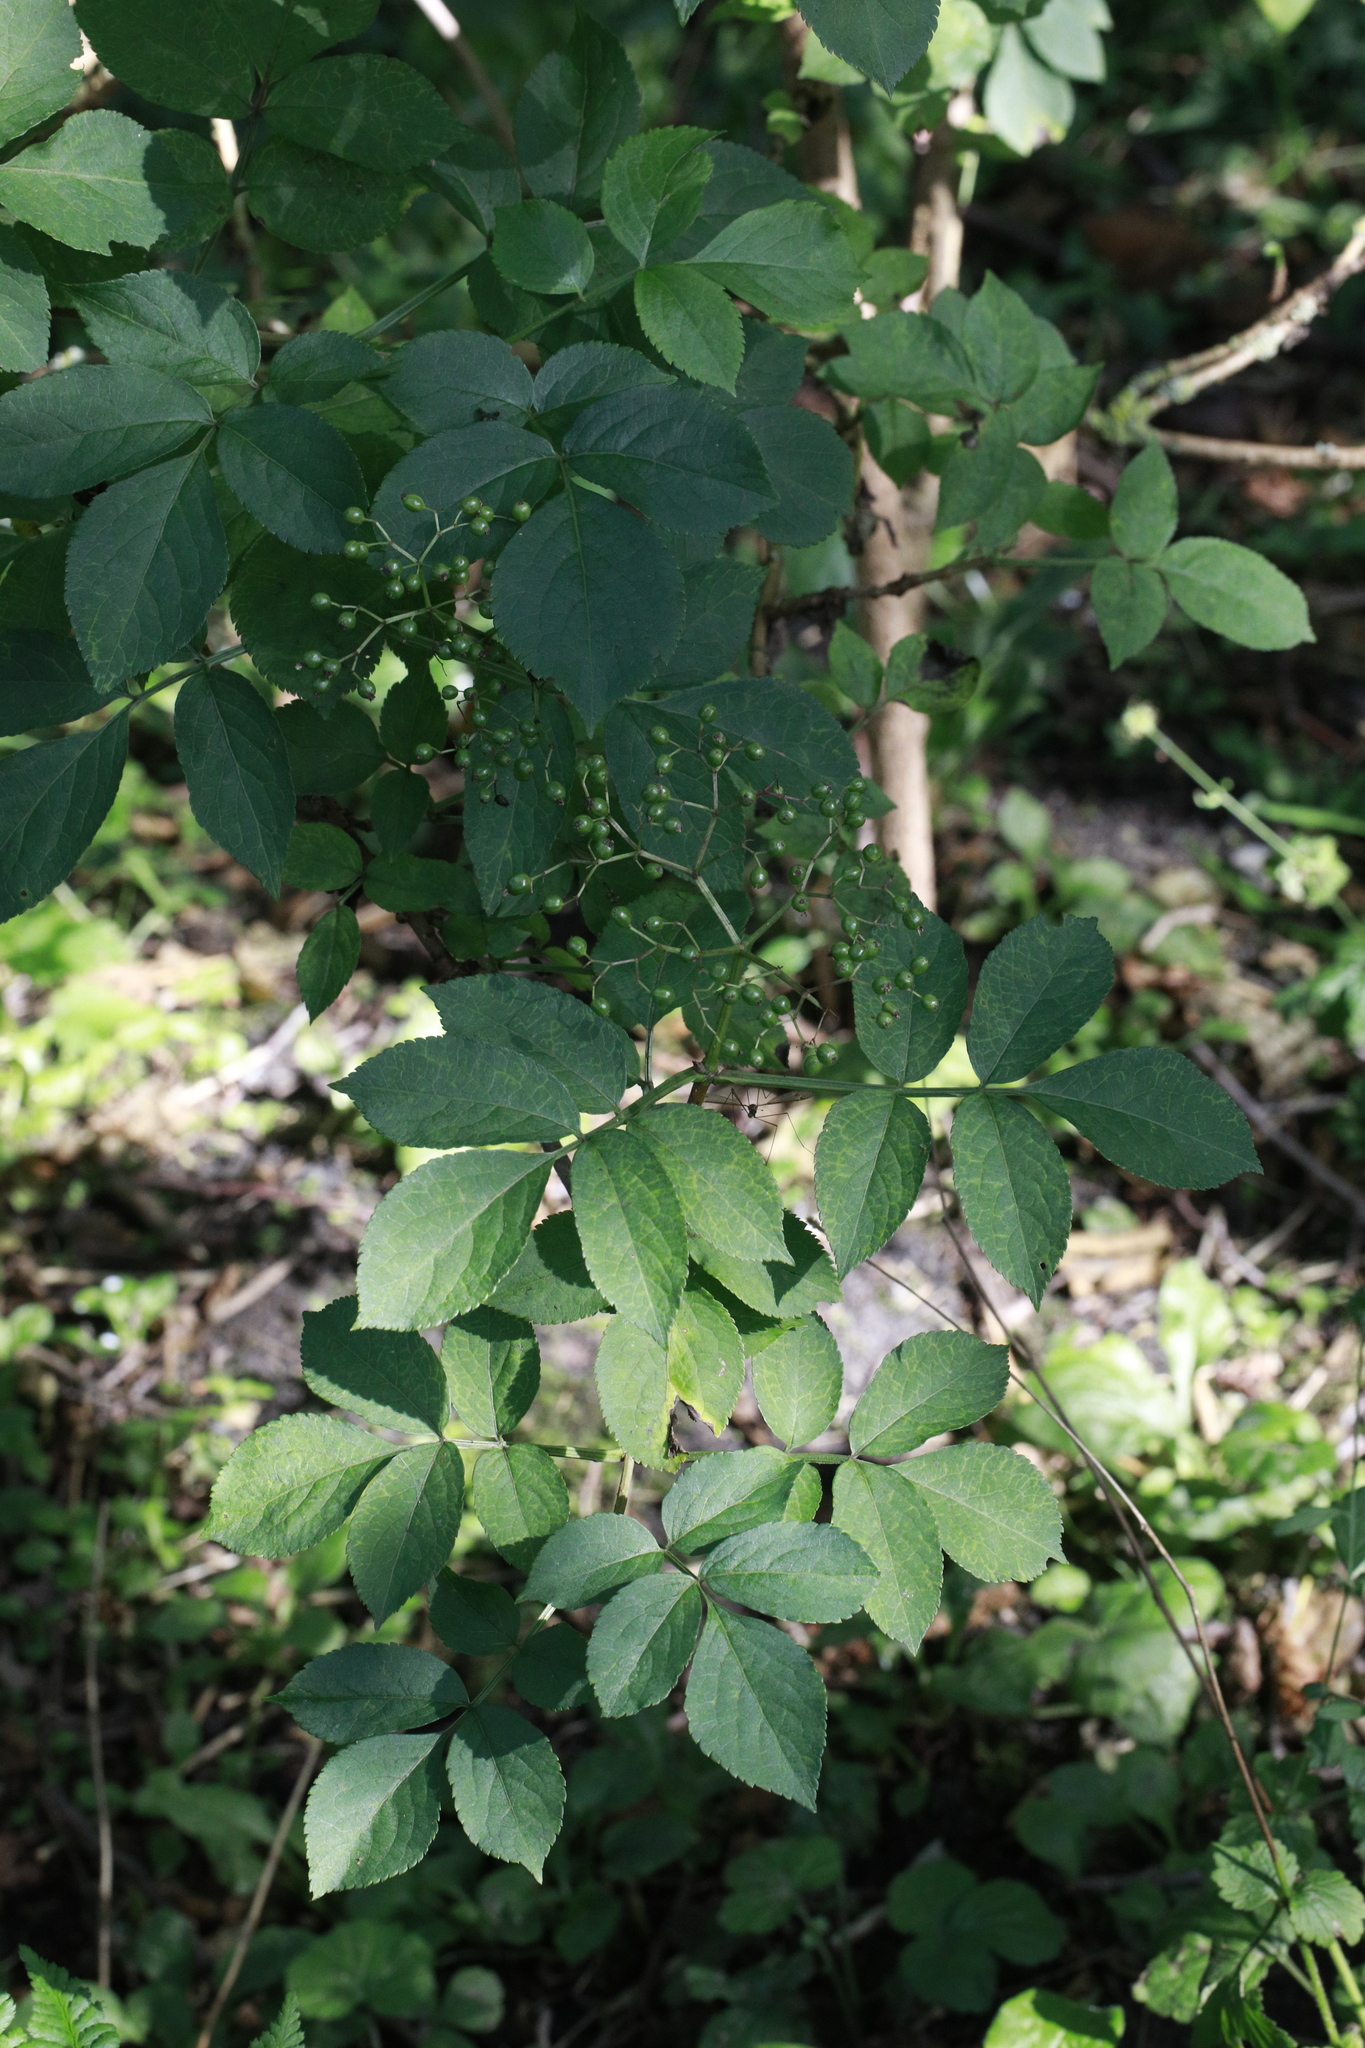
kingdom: Plantae
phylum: Tracheophyta
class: Magnoliopsida
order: Dipsacales
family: Viburnaceae
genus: Sambucus
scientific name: Sambucus nigra
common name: Elder
